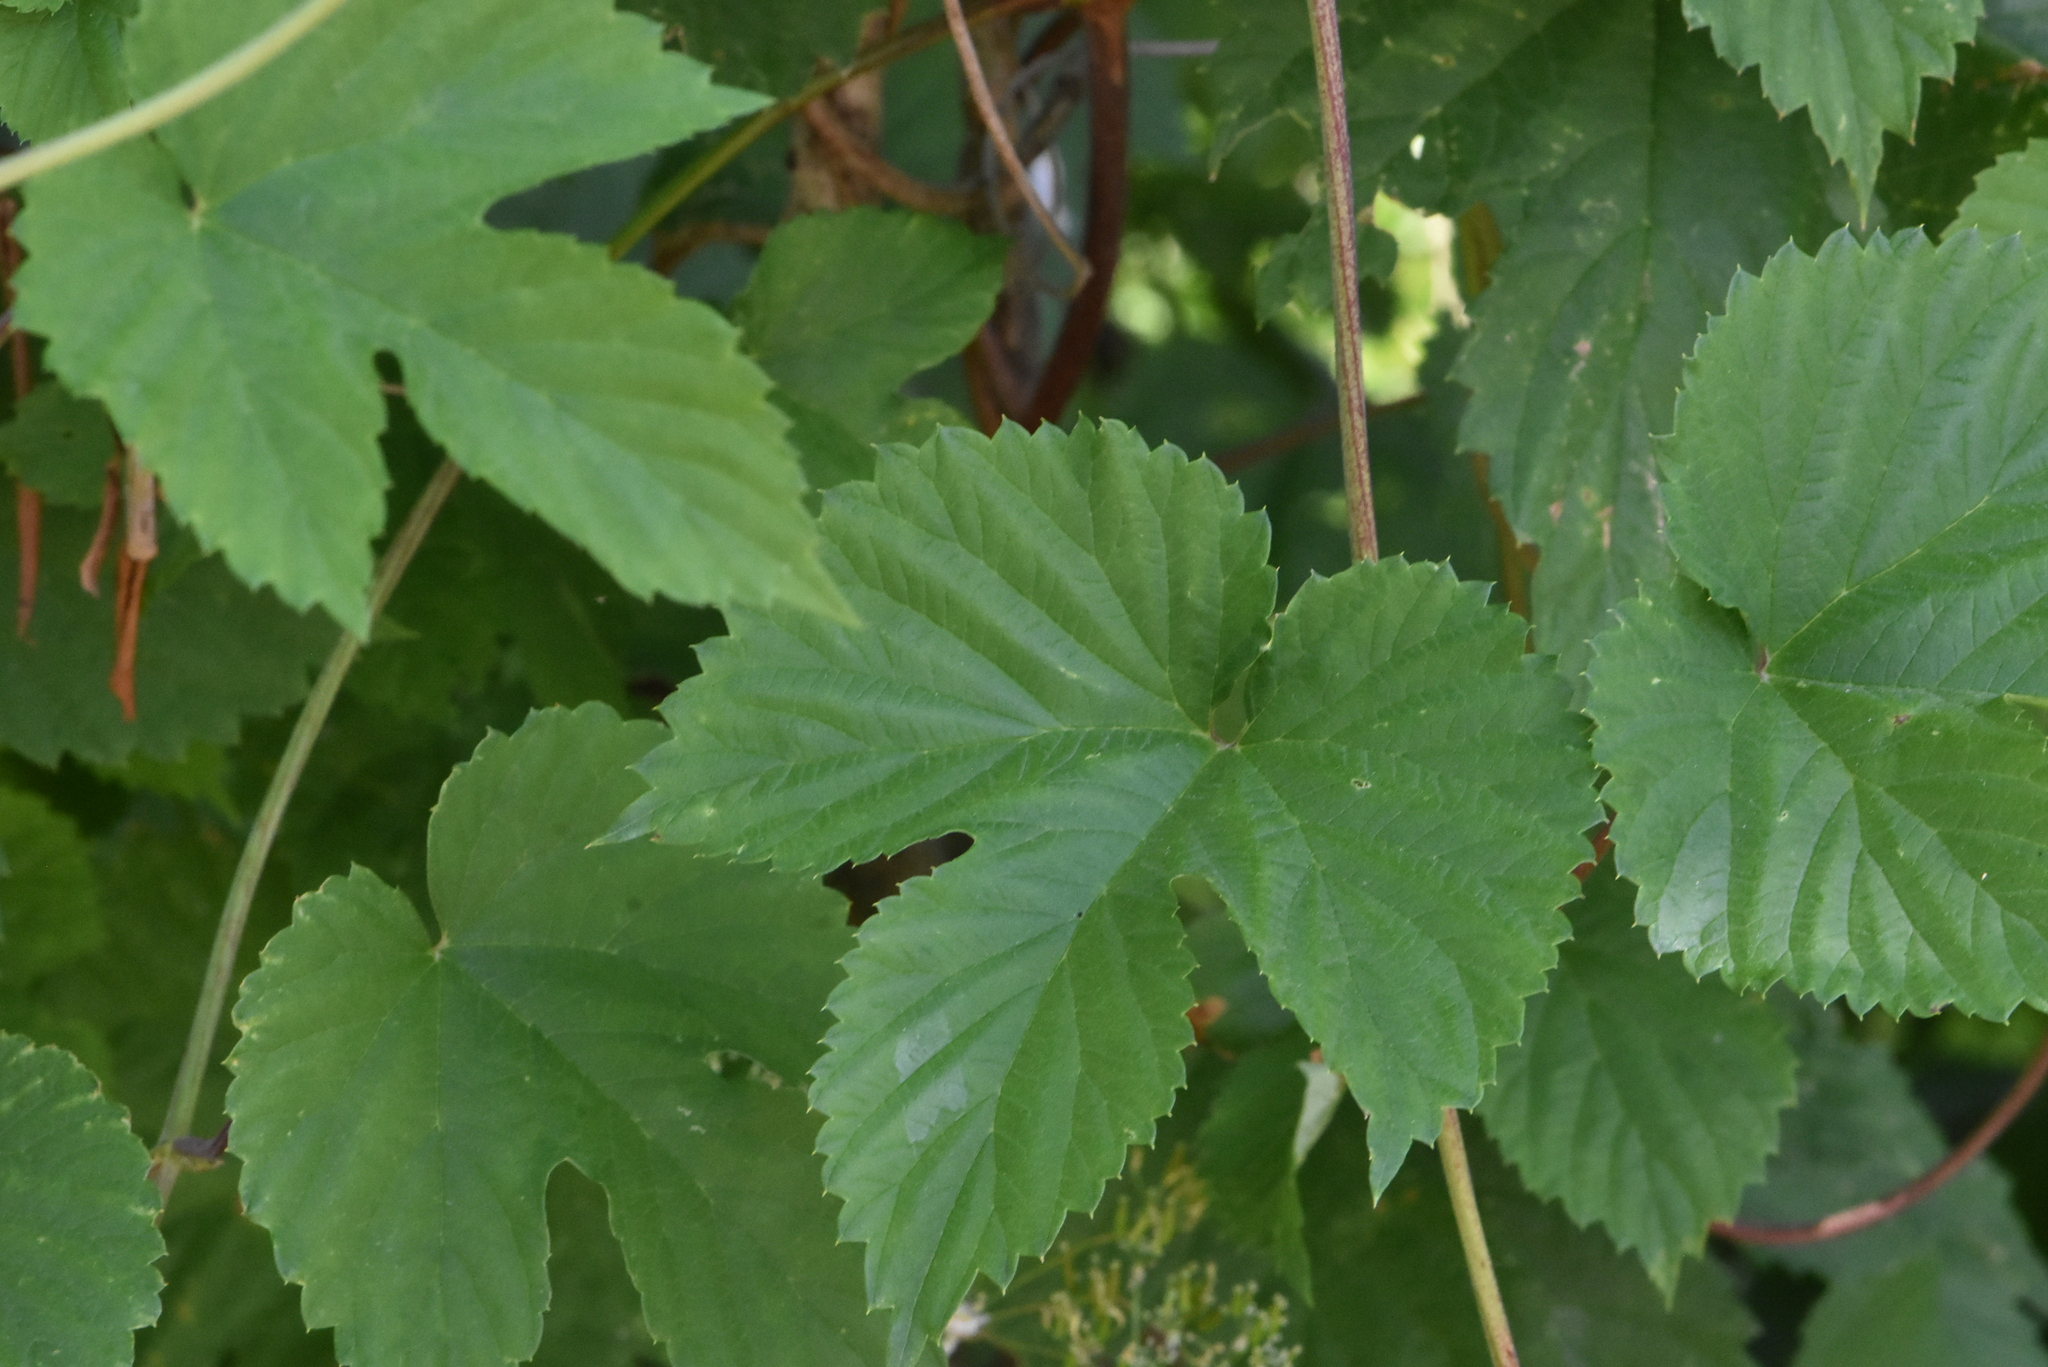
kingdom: Plantae
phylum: Tracheophyta
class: Magnoliopsida
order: Rosales
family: Cannabaceae
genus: Humulus
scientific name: Humulus lupulus
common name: Hop
